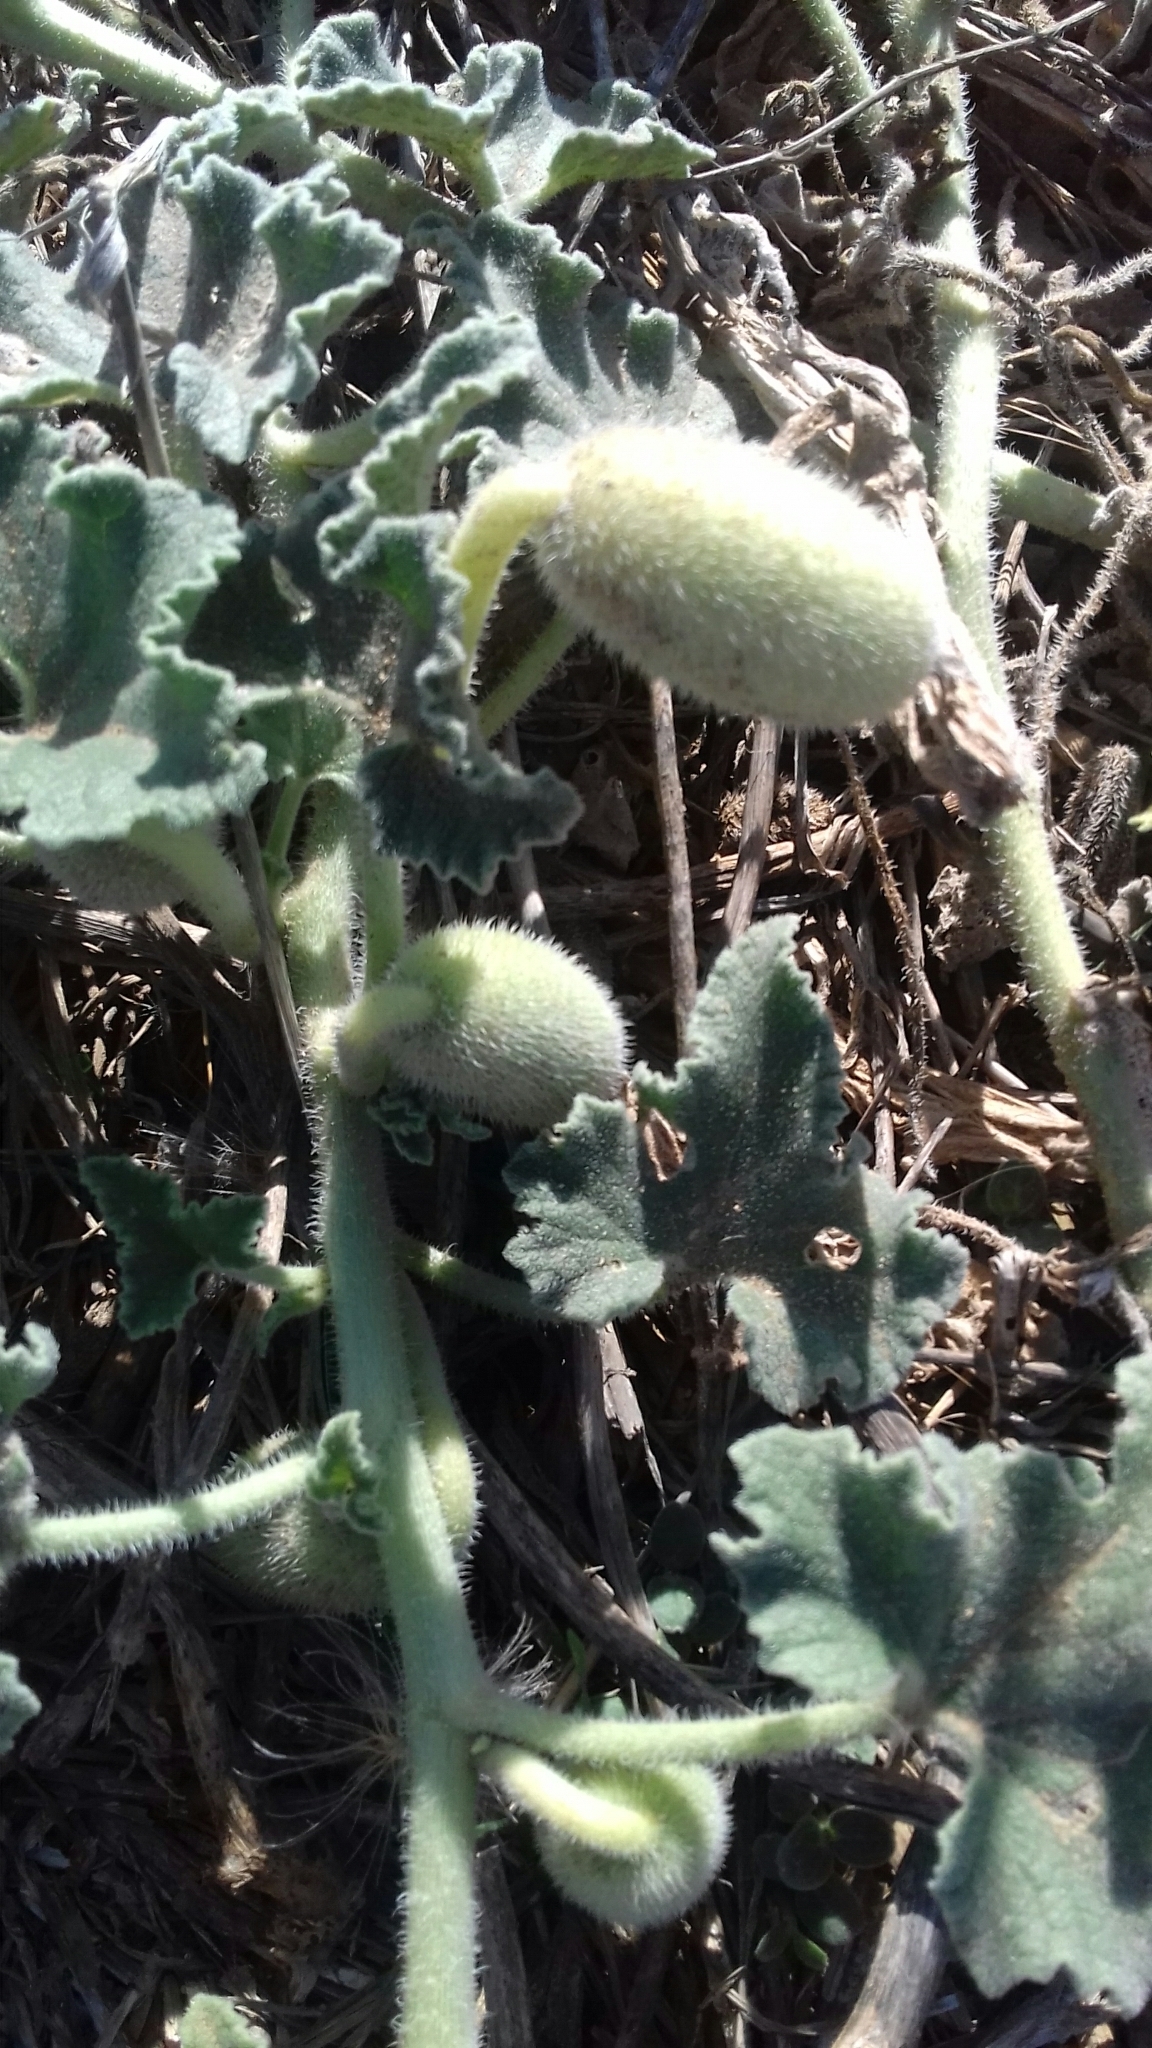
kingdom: Plantae
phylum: Tracheophyta
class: Magnoliopsida
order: Cucurbitales
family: Cucurbitaceae
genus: Ecballium
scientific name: Ecballium elaterium
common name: Squirting cucumber
